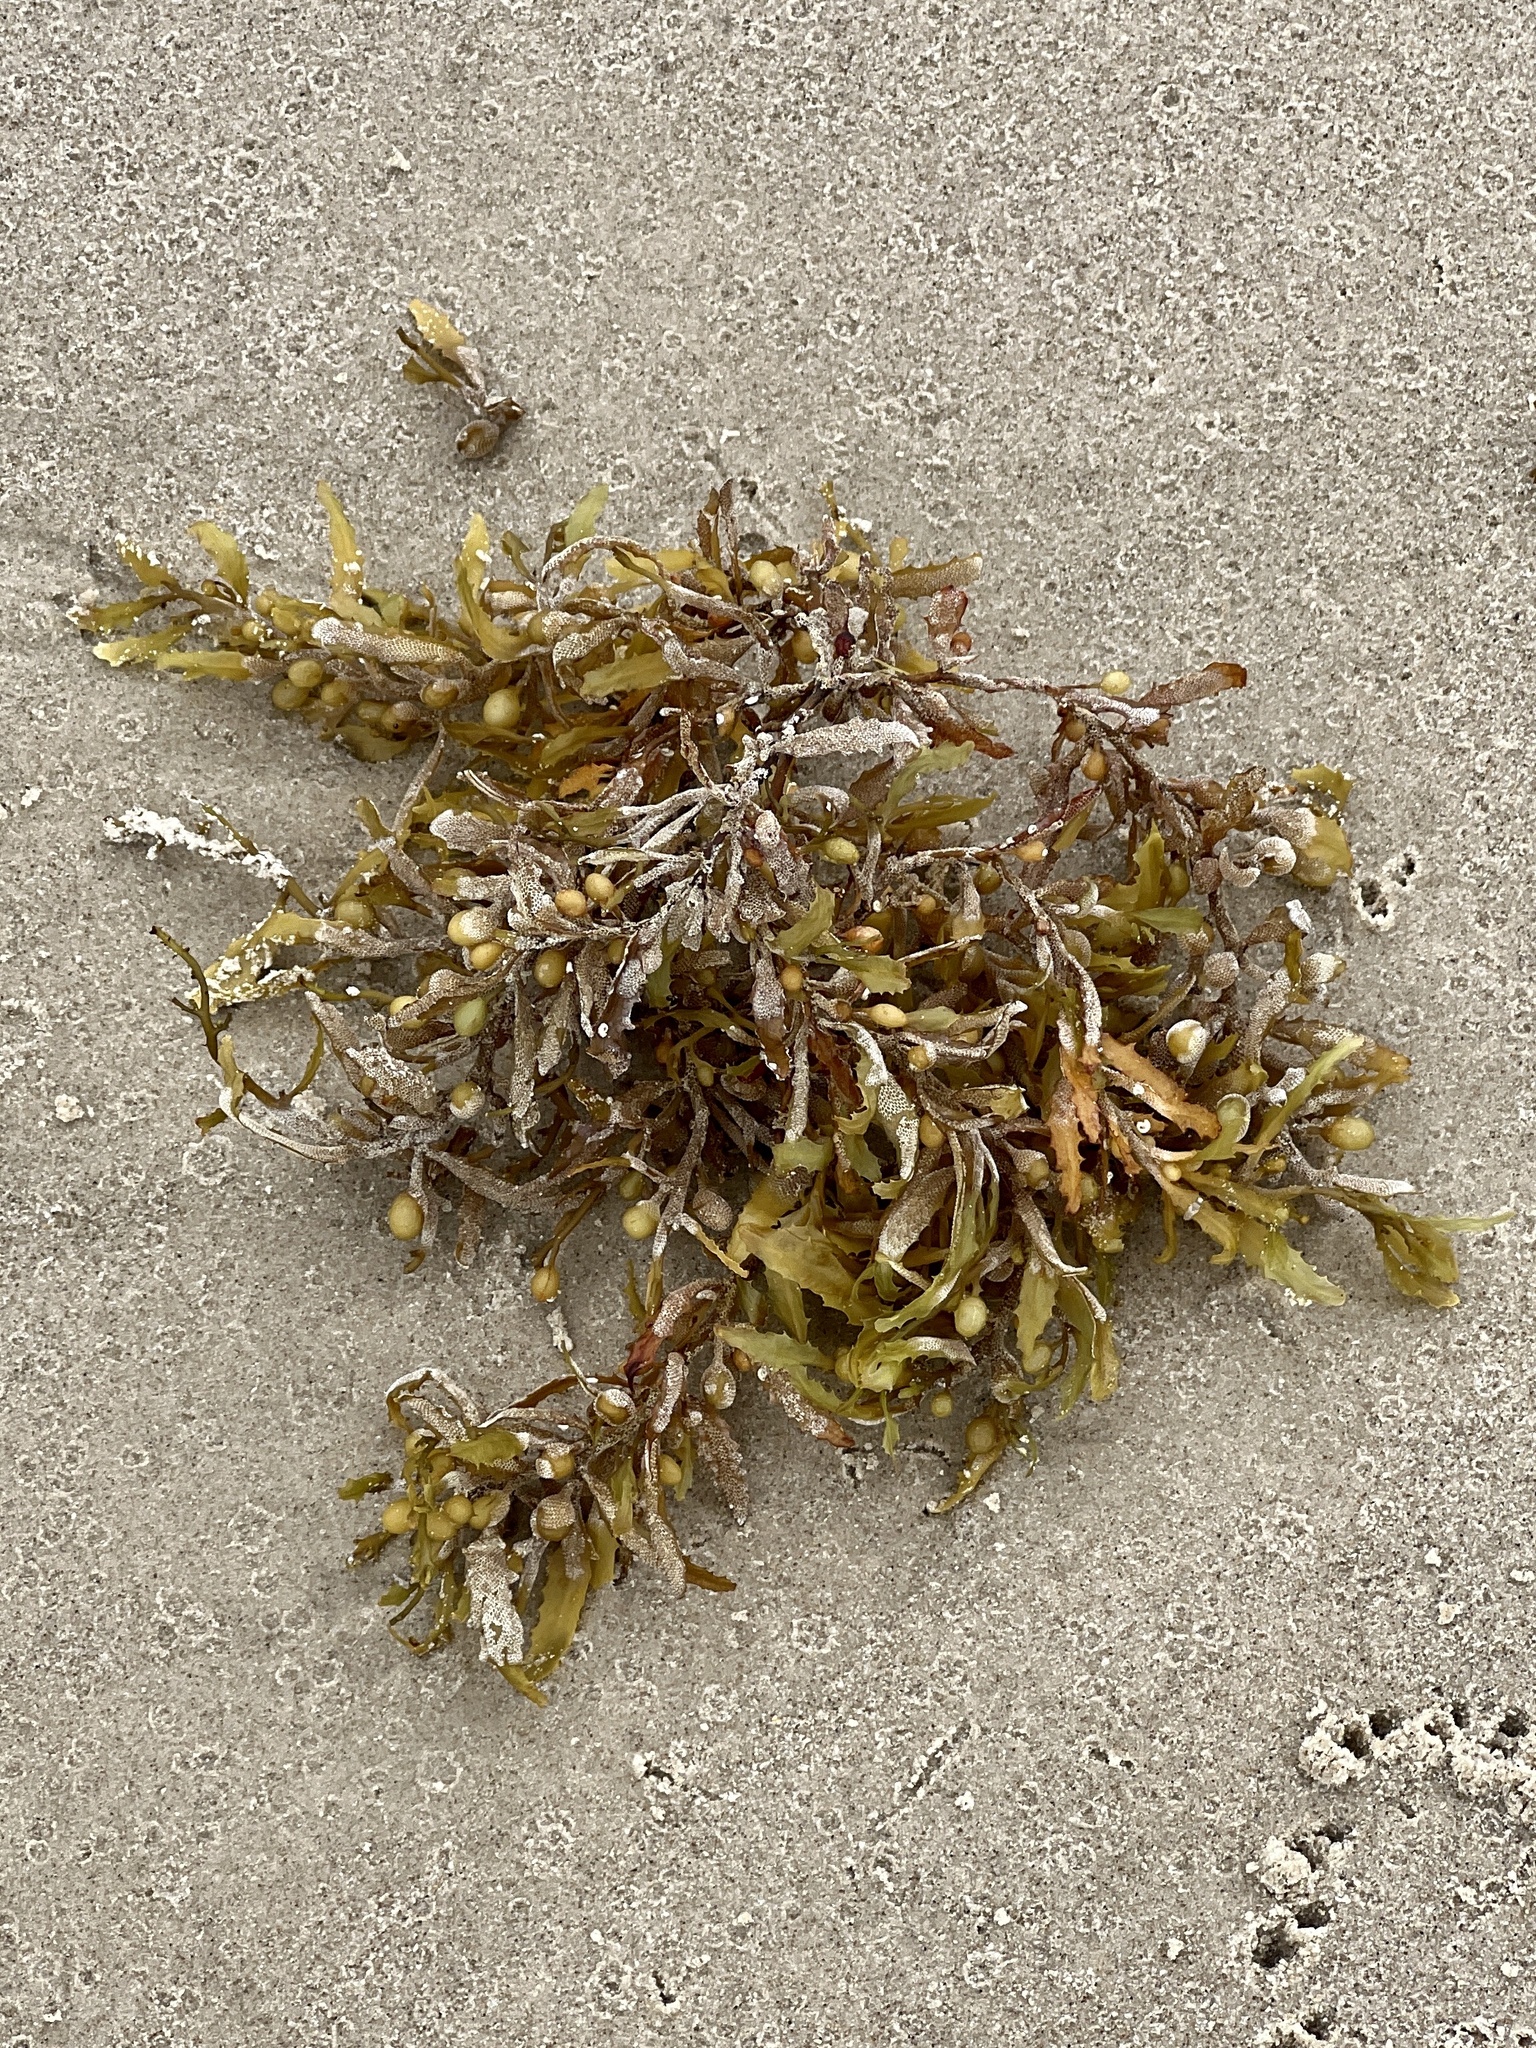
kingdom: Chromista
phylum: Ochrophyta
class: Phaeophyceae
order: Fucales
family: Sargassaceae
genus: Sargassum
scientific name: Sargassum fluitans
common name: Sargassum seaweed
